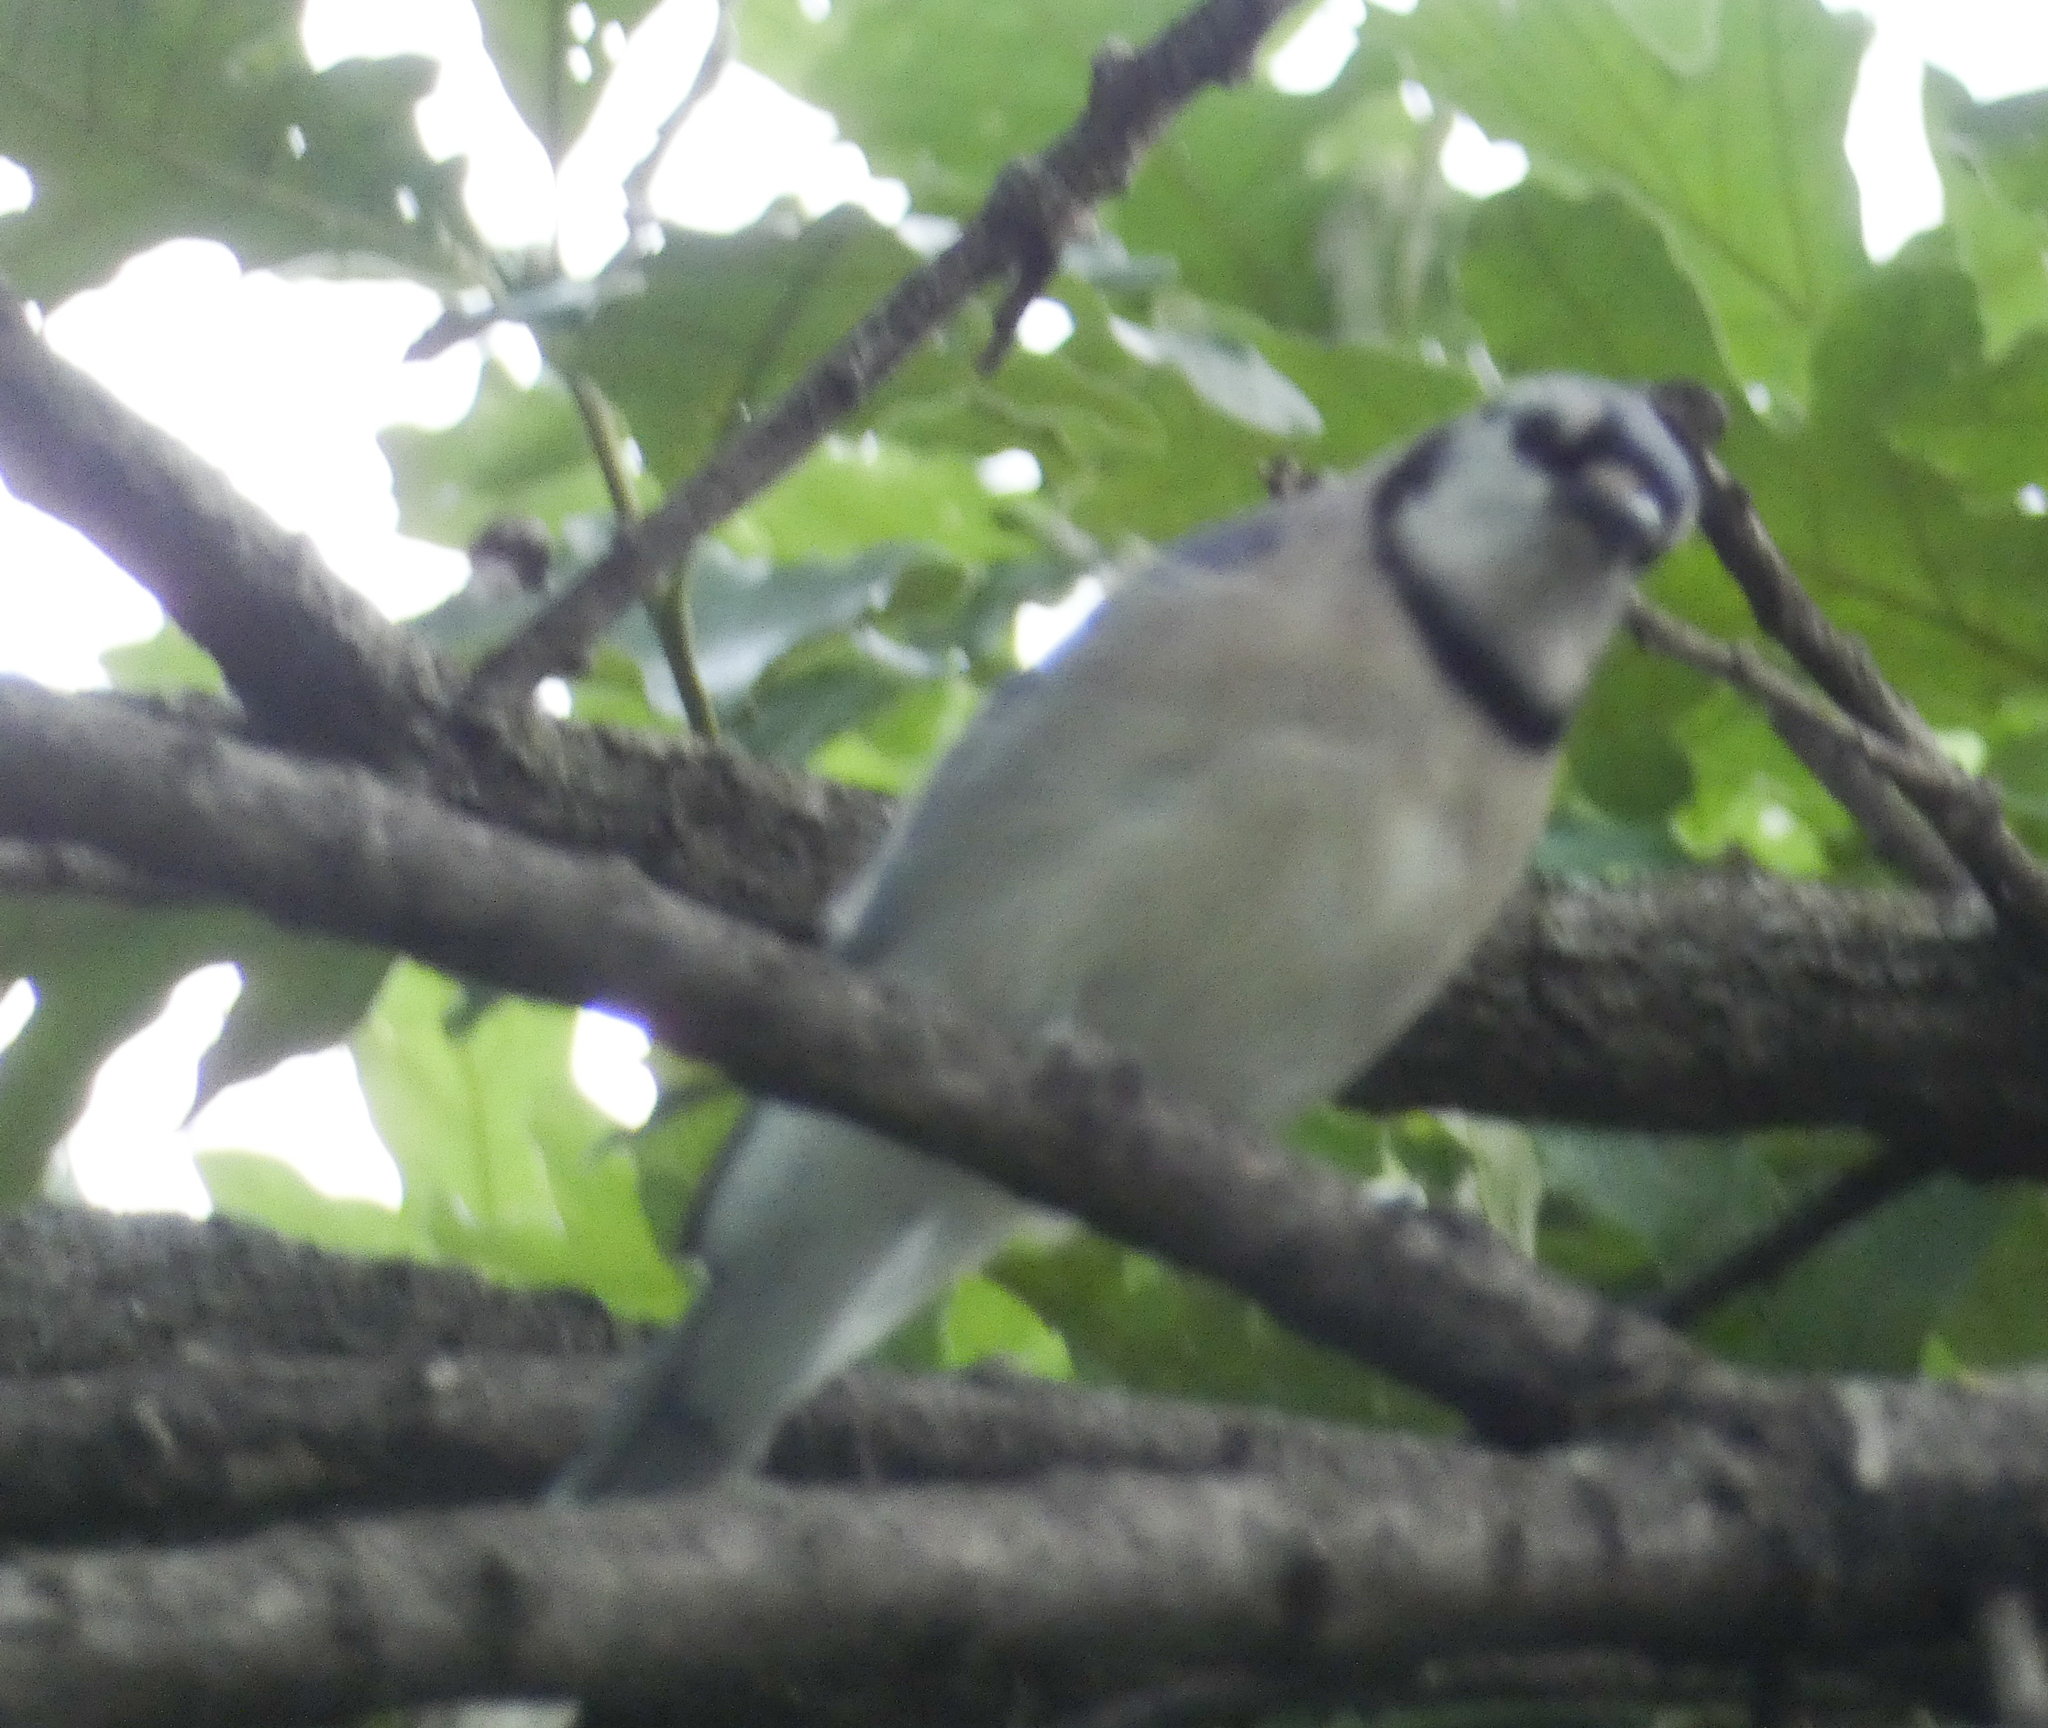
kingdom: Animalia
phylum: Chordata
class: Aves
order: Passeriformes
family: Corvidae
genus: Cyanocitta
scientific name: Cyanocitta cristata
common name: Blue jay
